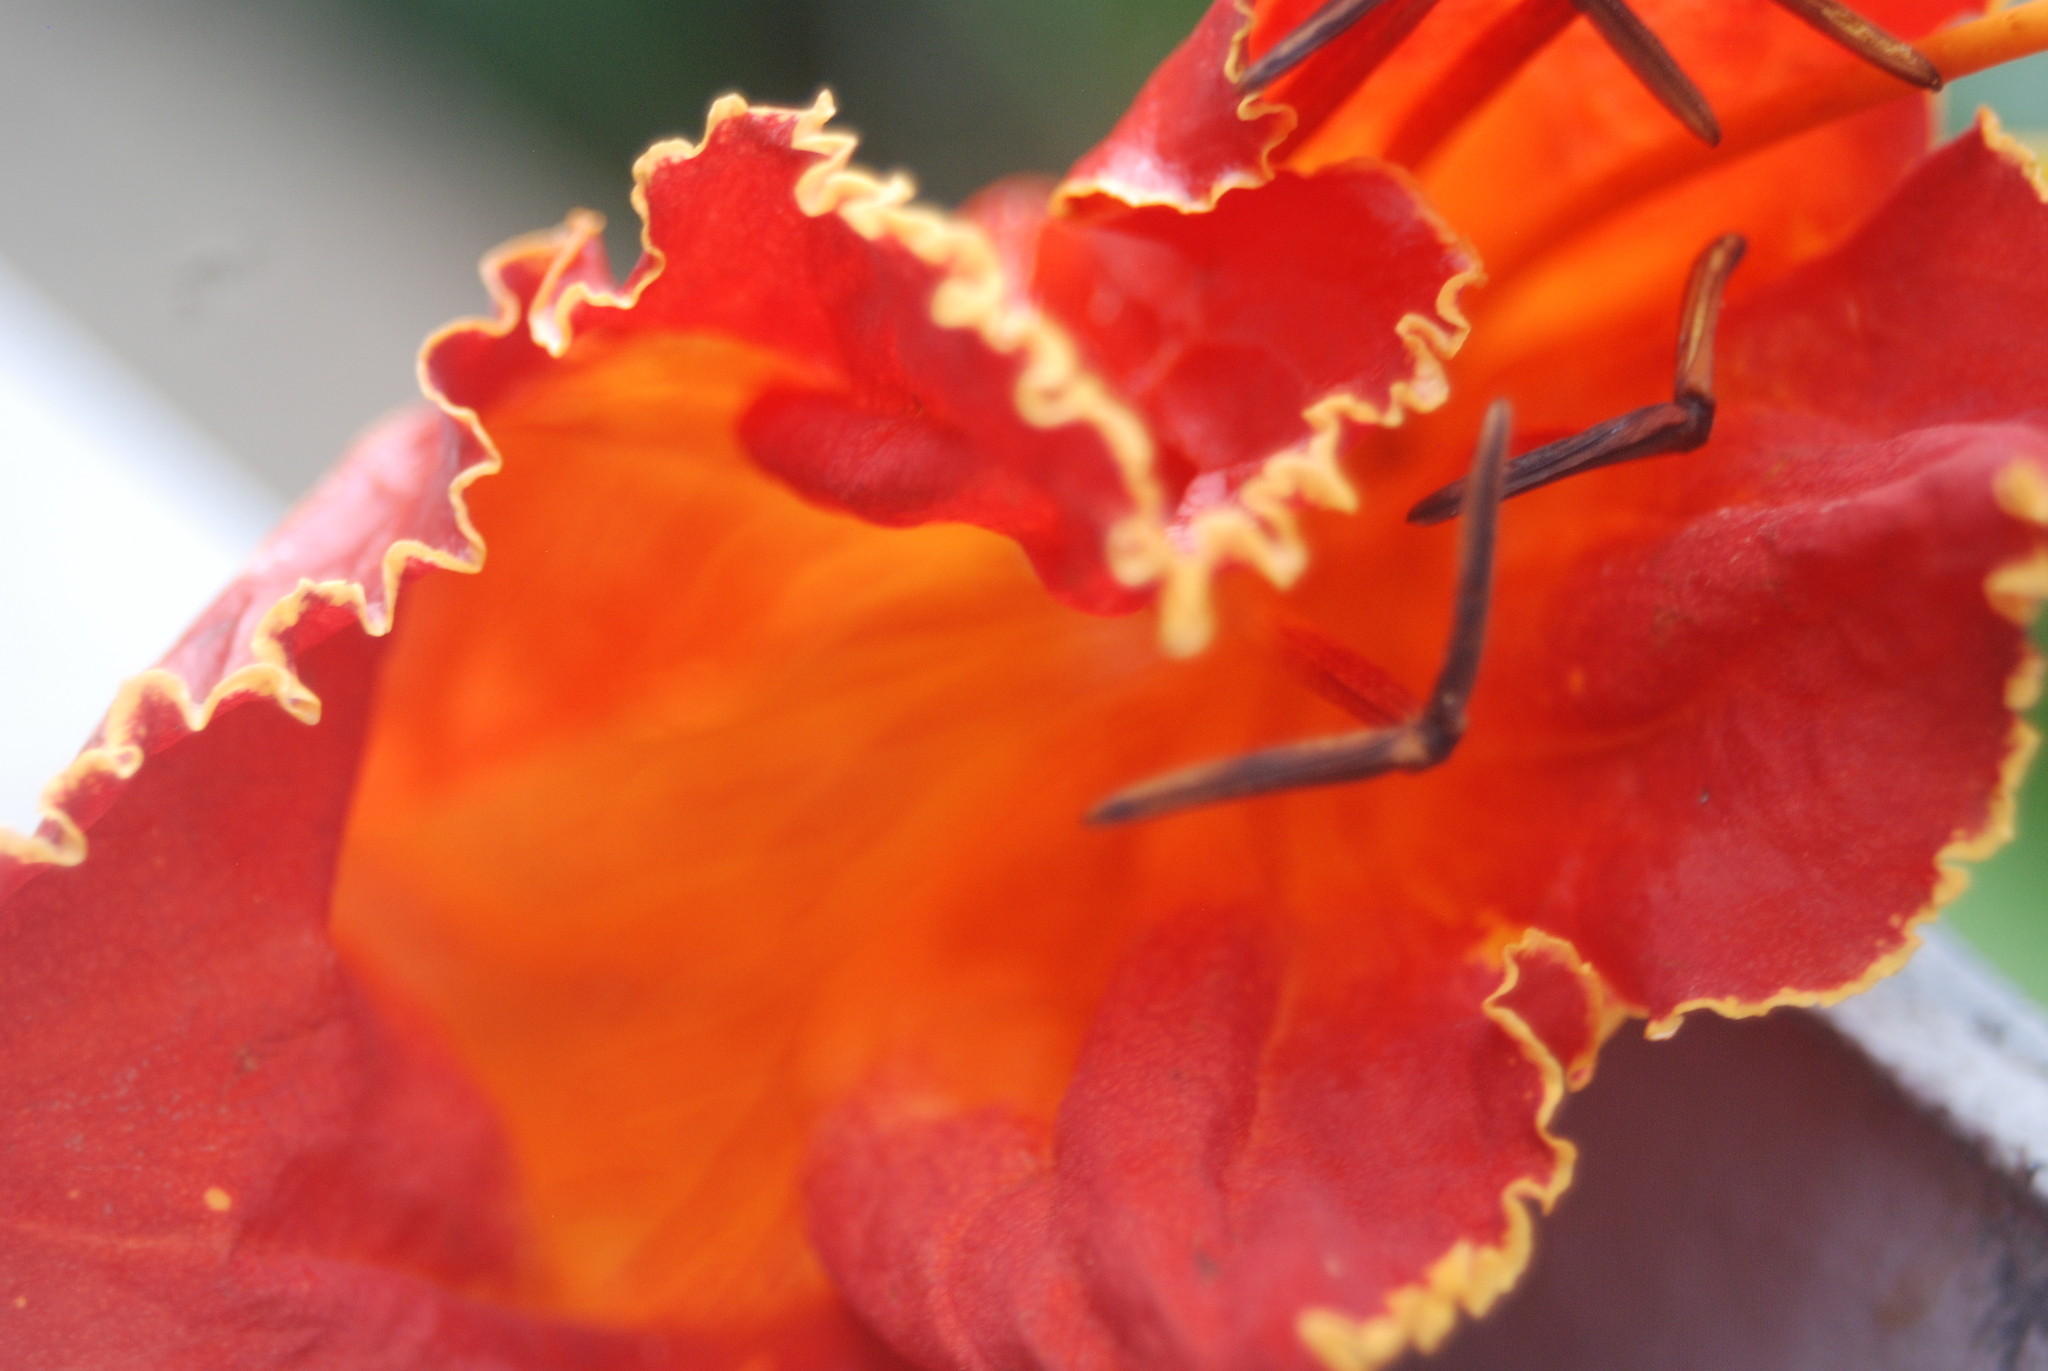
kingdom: Plantae
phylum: Tracheophyta
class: Magnoliopsida
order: Lamiales
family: Bignoniaceae
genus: Spathodea
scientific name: Spathodea campanulata
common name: African tuliptree
